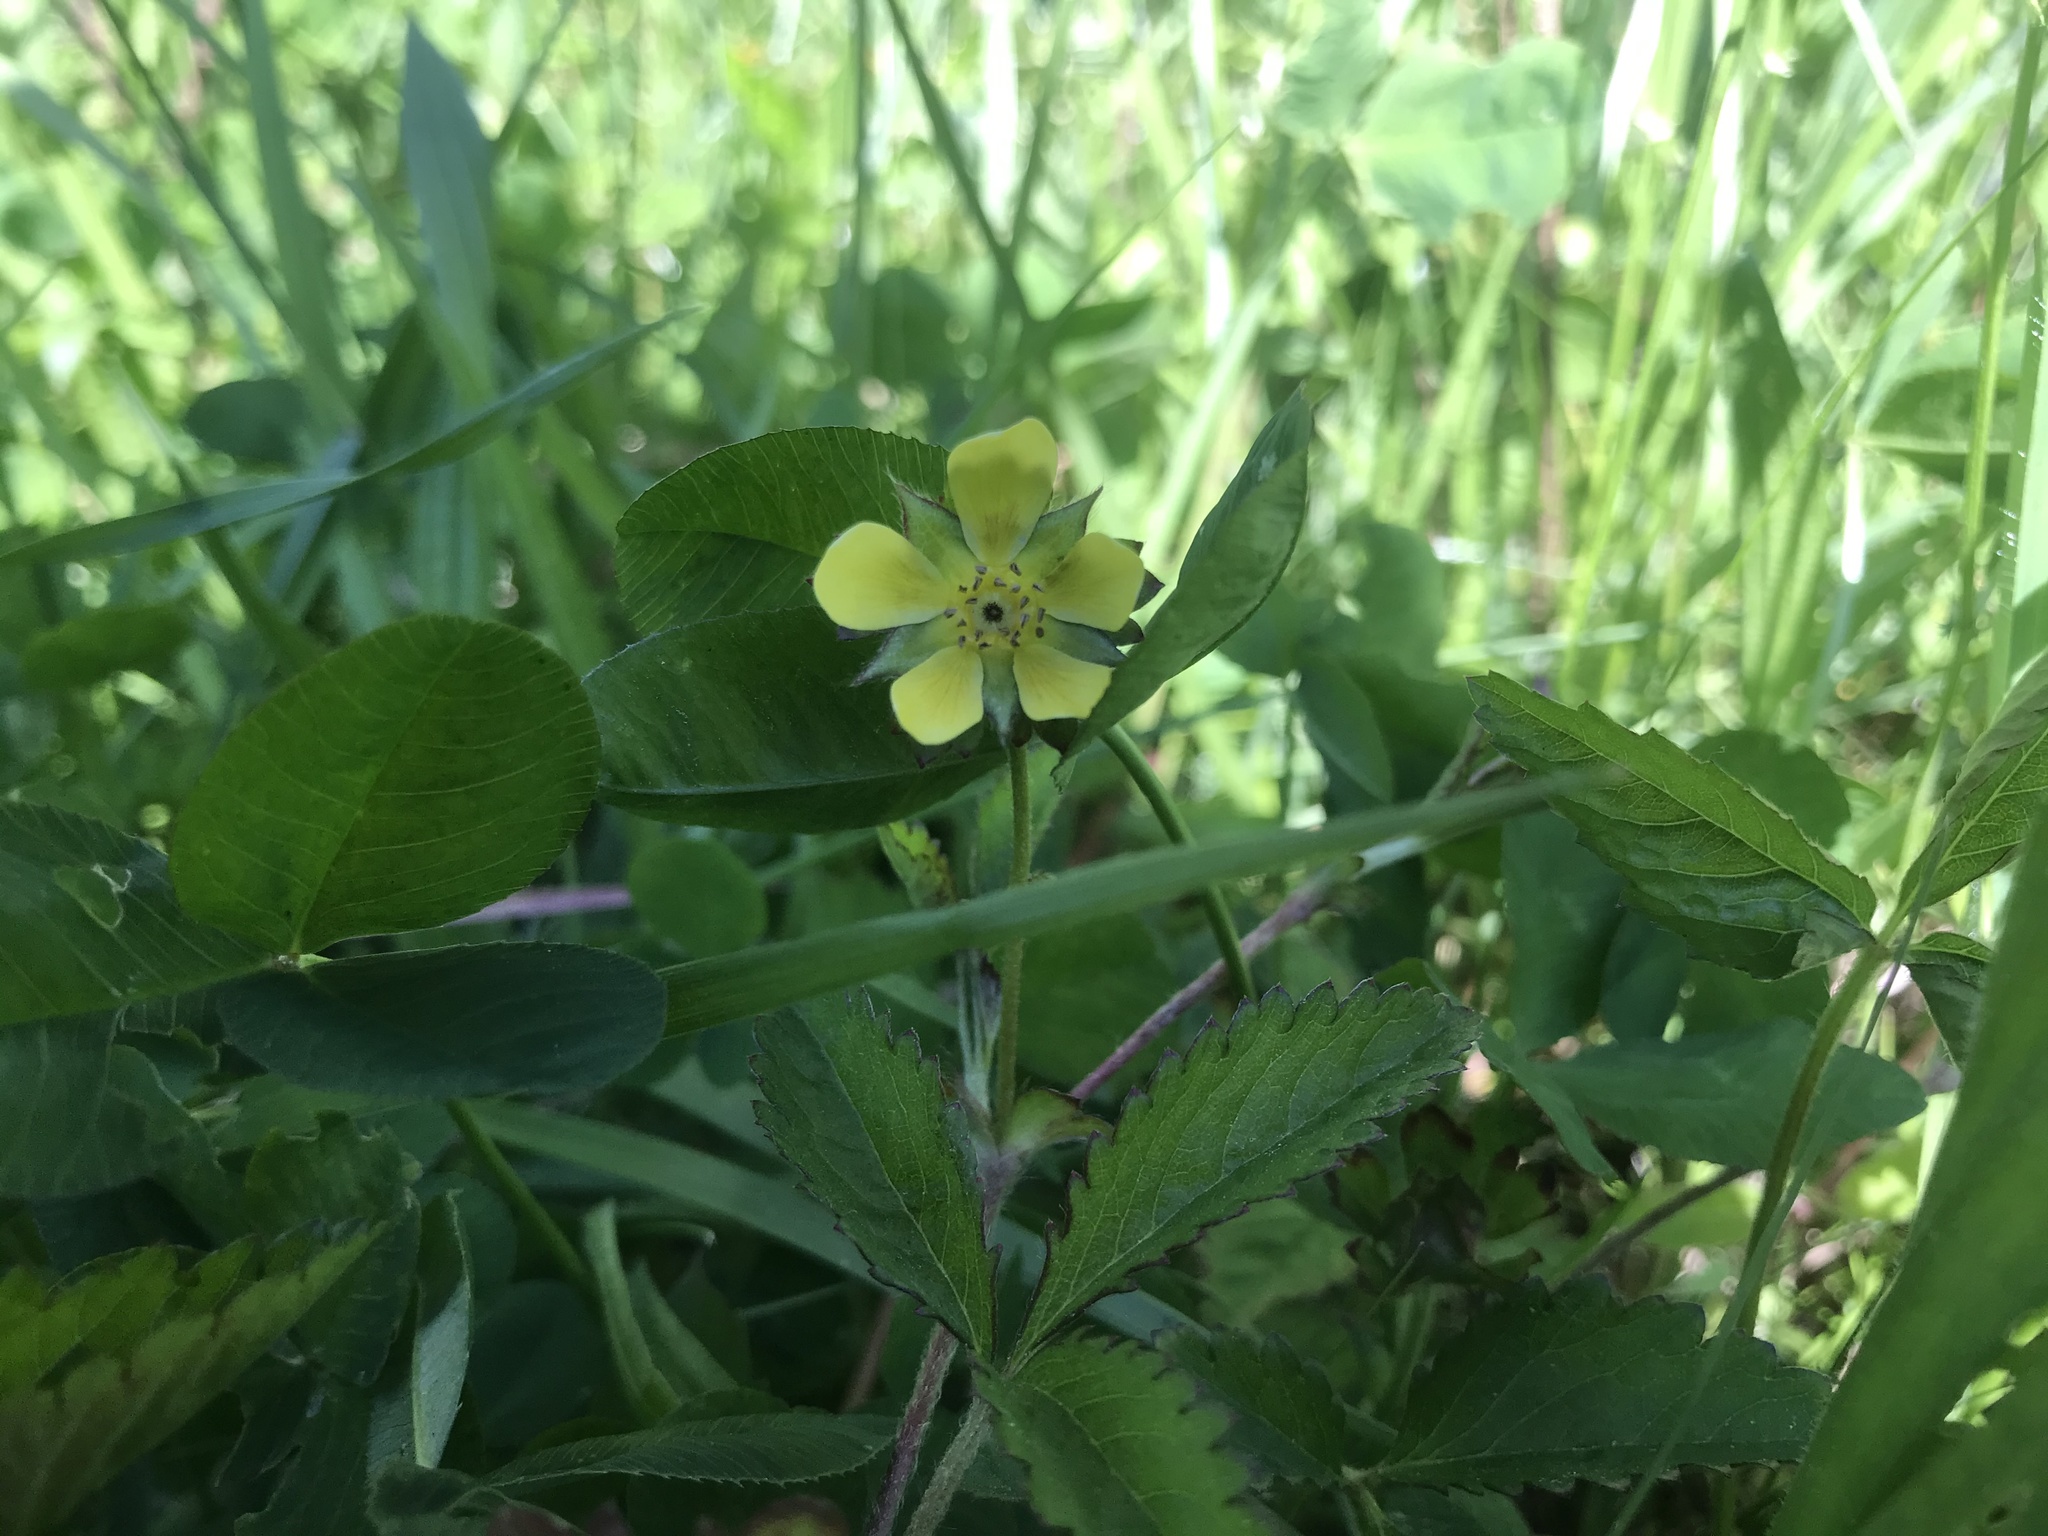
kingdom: Plantae
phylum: Tracheophyta
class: Magnoliopsida
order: Rosales
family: Rosaceae
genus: Potentilla
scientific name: Potentilla indica
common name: Yellow-flowered strawberry
